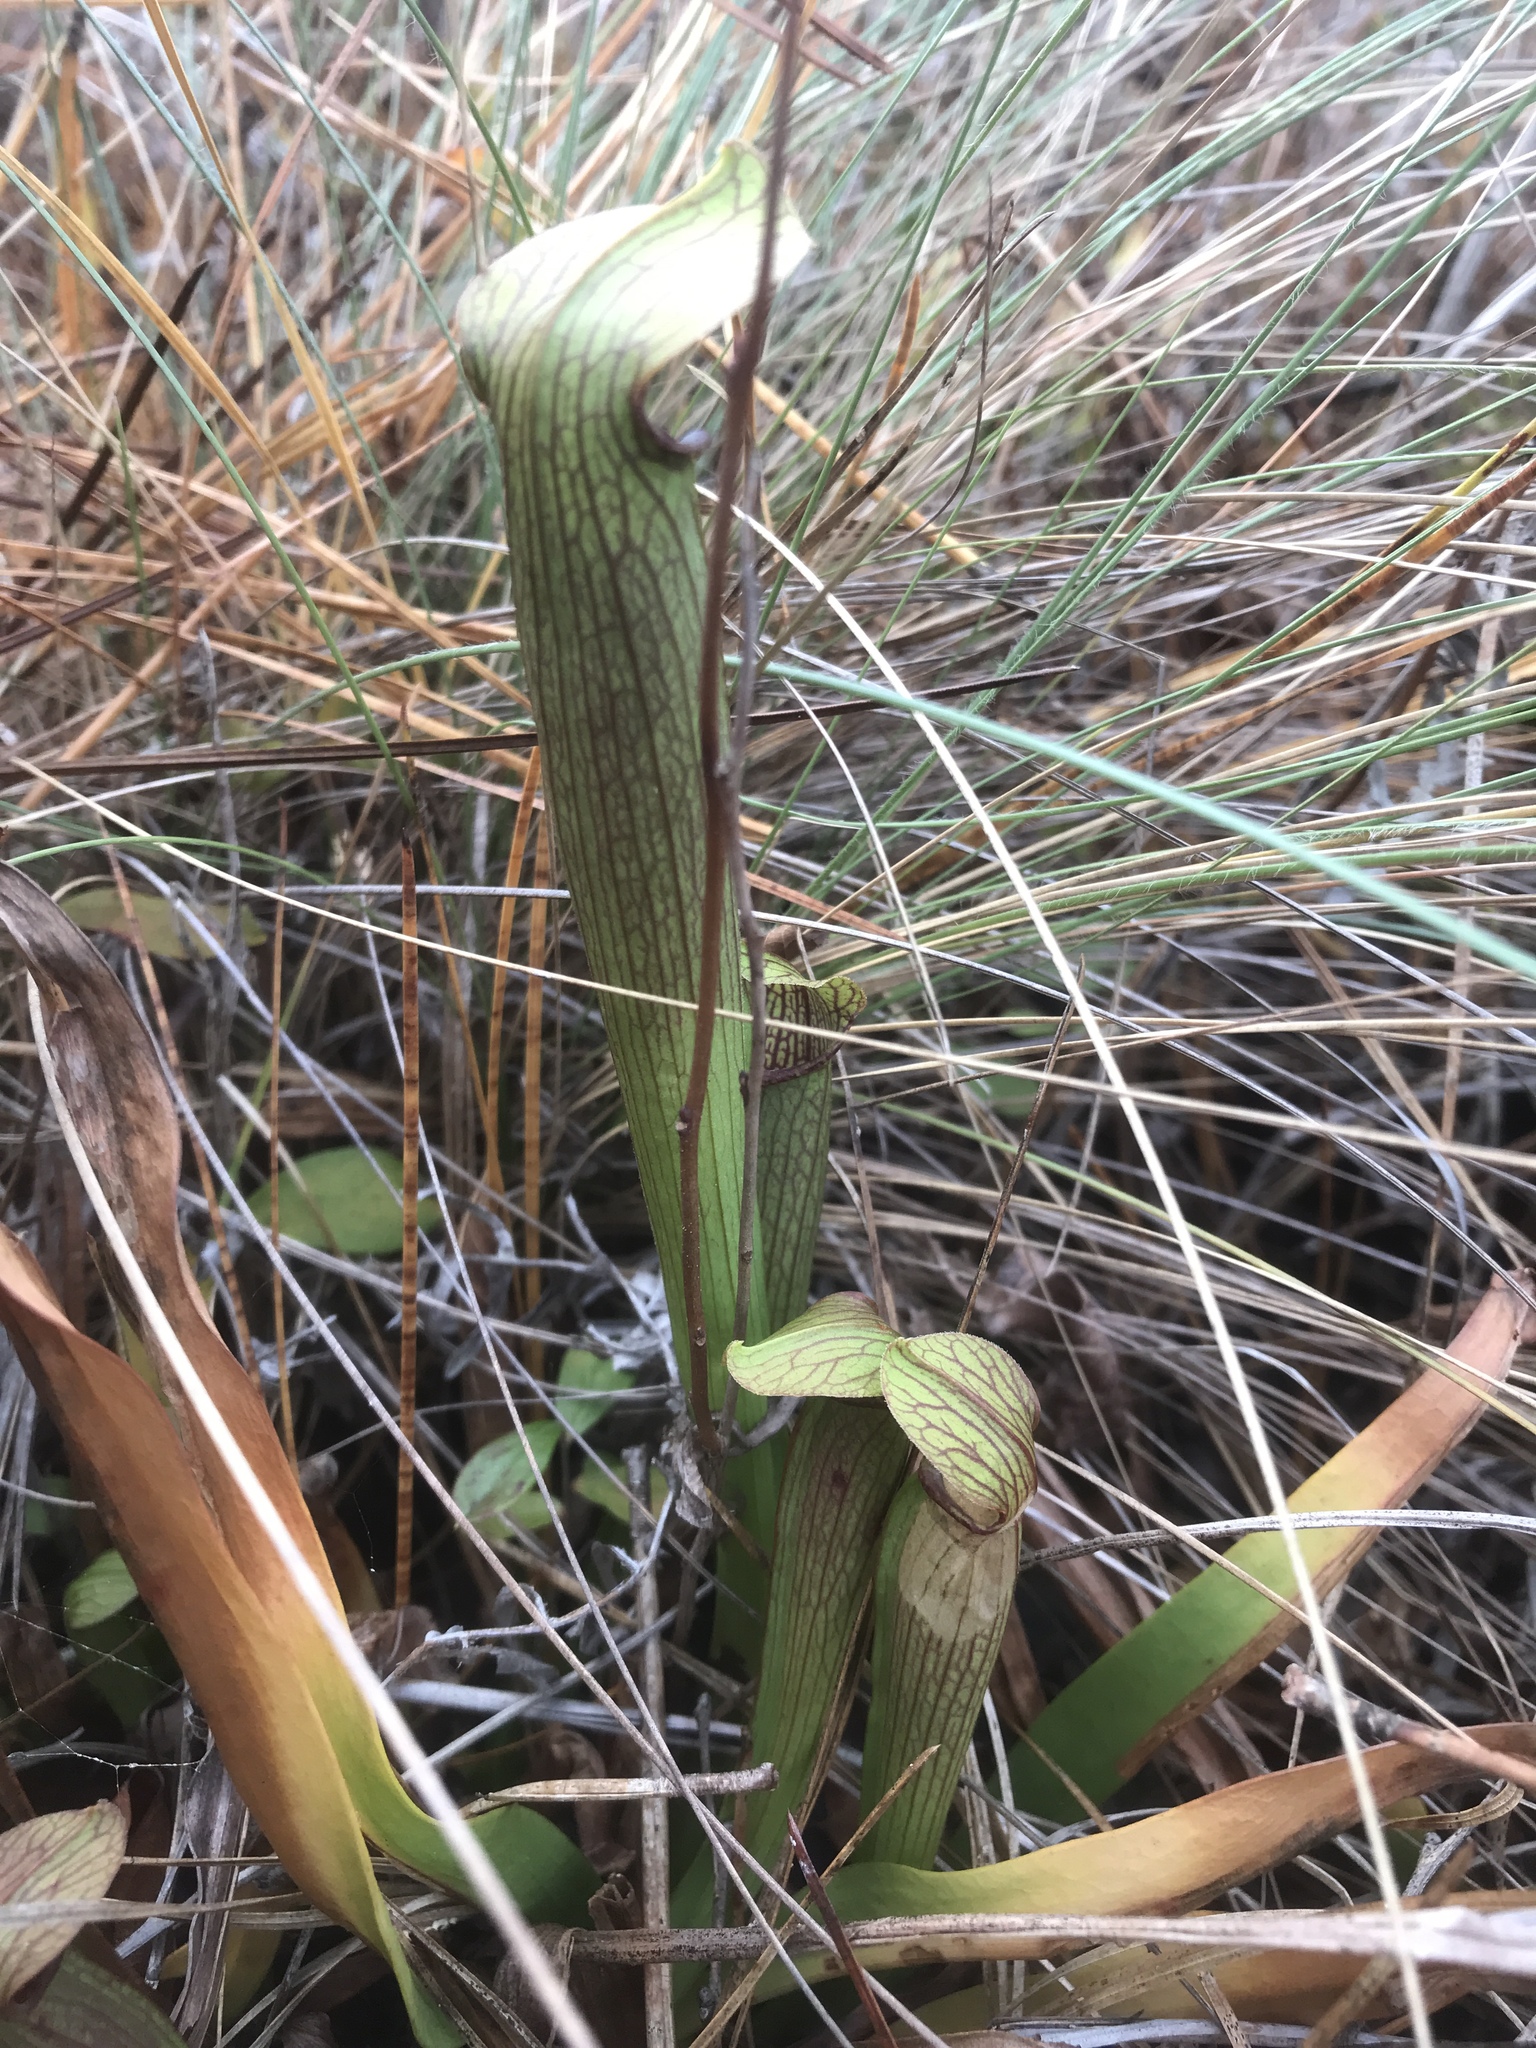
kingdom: Plantae
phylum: Tracheophyta
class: Magnoliopsida
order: Ericales
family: Sarraceniaceae
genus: Sarracenia
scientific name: Sarracenia rubra
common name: Sweet pitcherplant
